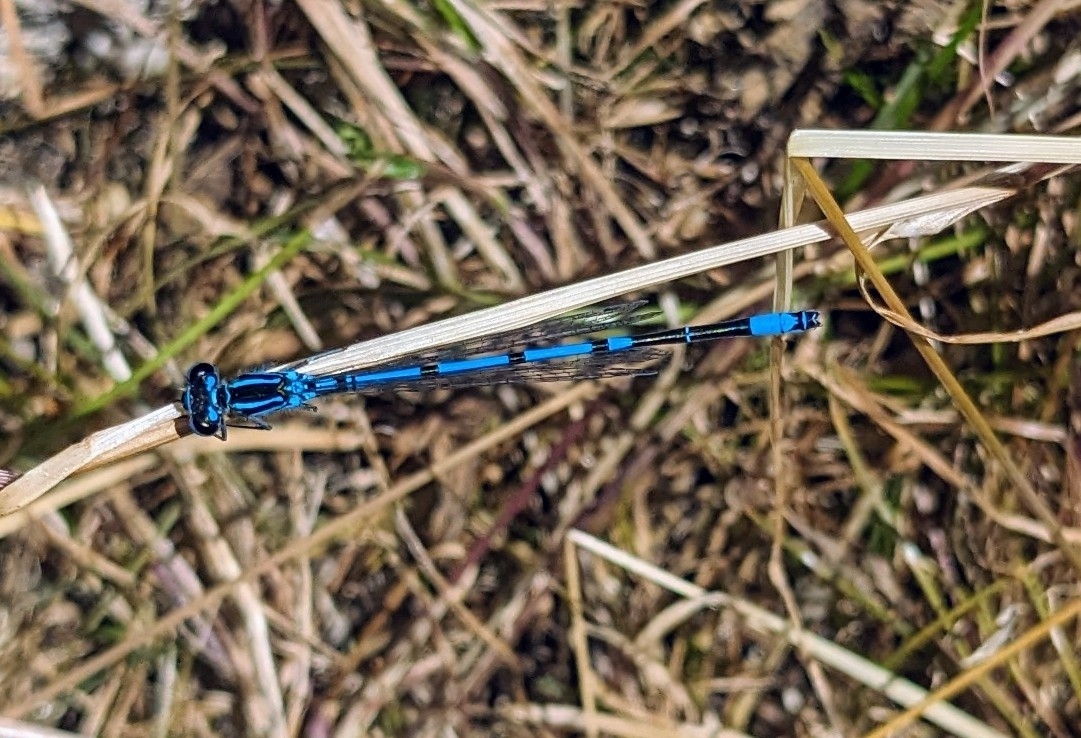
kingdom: Animalia
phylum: Arthropoda
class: Insecta
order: Odonata
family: Coenagrionidae
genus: Coenagrion
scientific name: Coenagrion puella
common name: Azure damselfly
